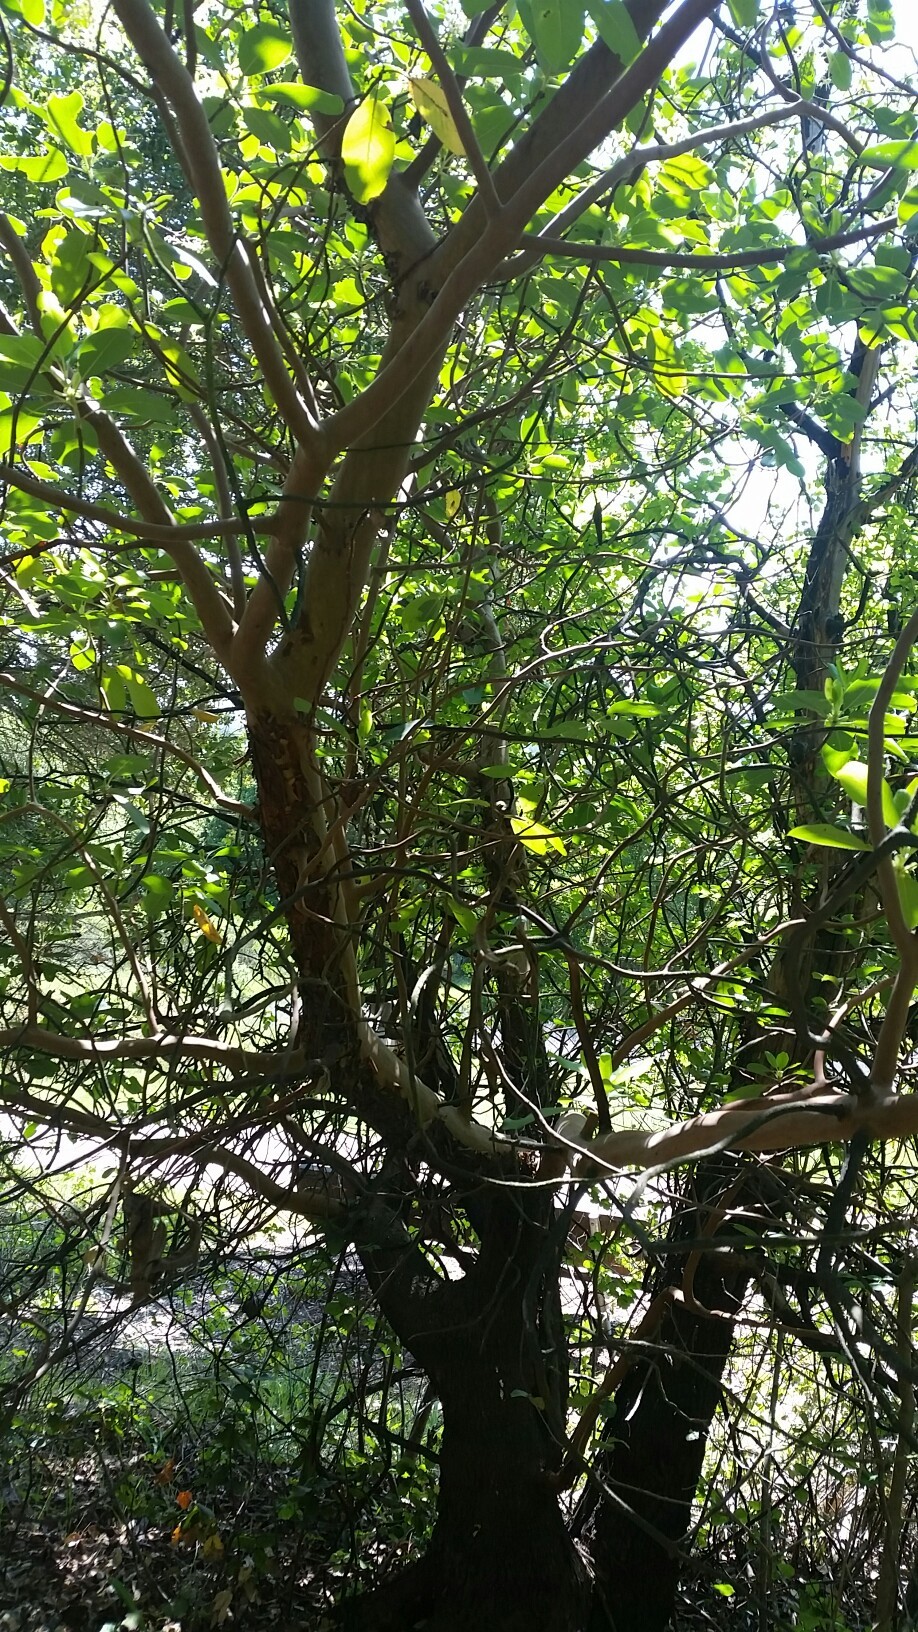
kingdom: Plantae
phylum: Tracheophyta
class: Magnoliopsida
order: Ericales
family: Ericaceae
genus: Arbutus
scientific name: Arbutus menziesii
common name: Pacific madrone
